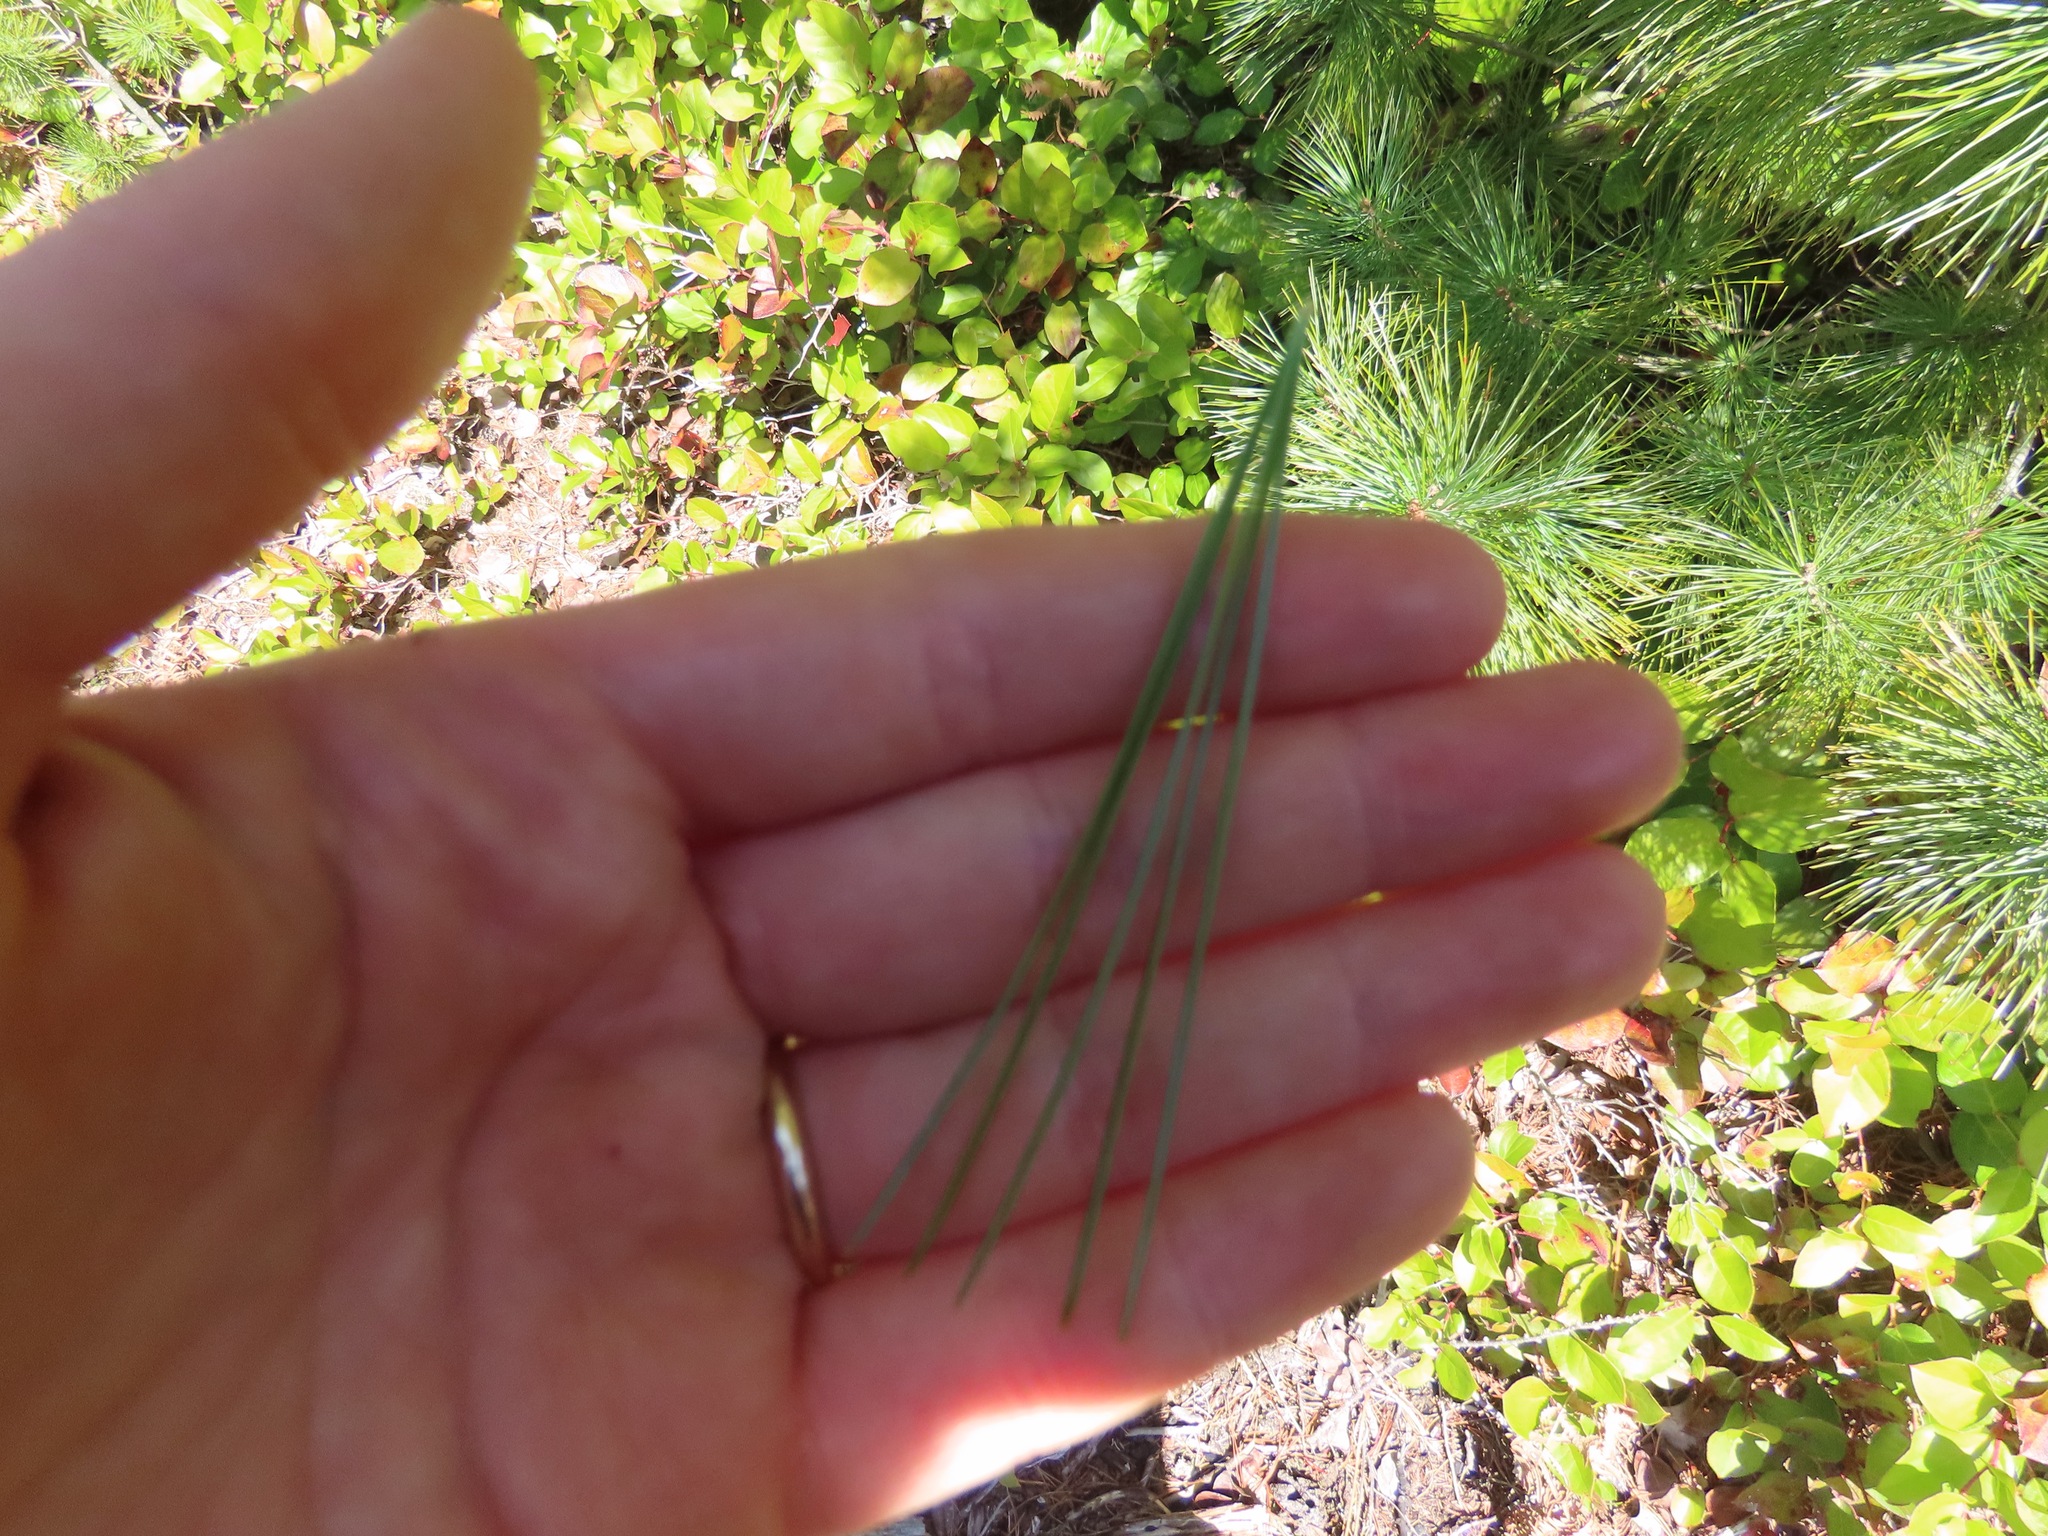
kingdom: Plantae
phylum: Tracheophyta
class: Pinopsida
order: Pinales
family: Pinaceae
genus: Pinus
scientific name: Pinus monticola
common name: Western white pine
